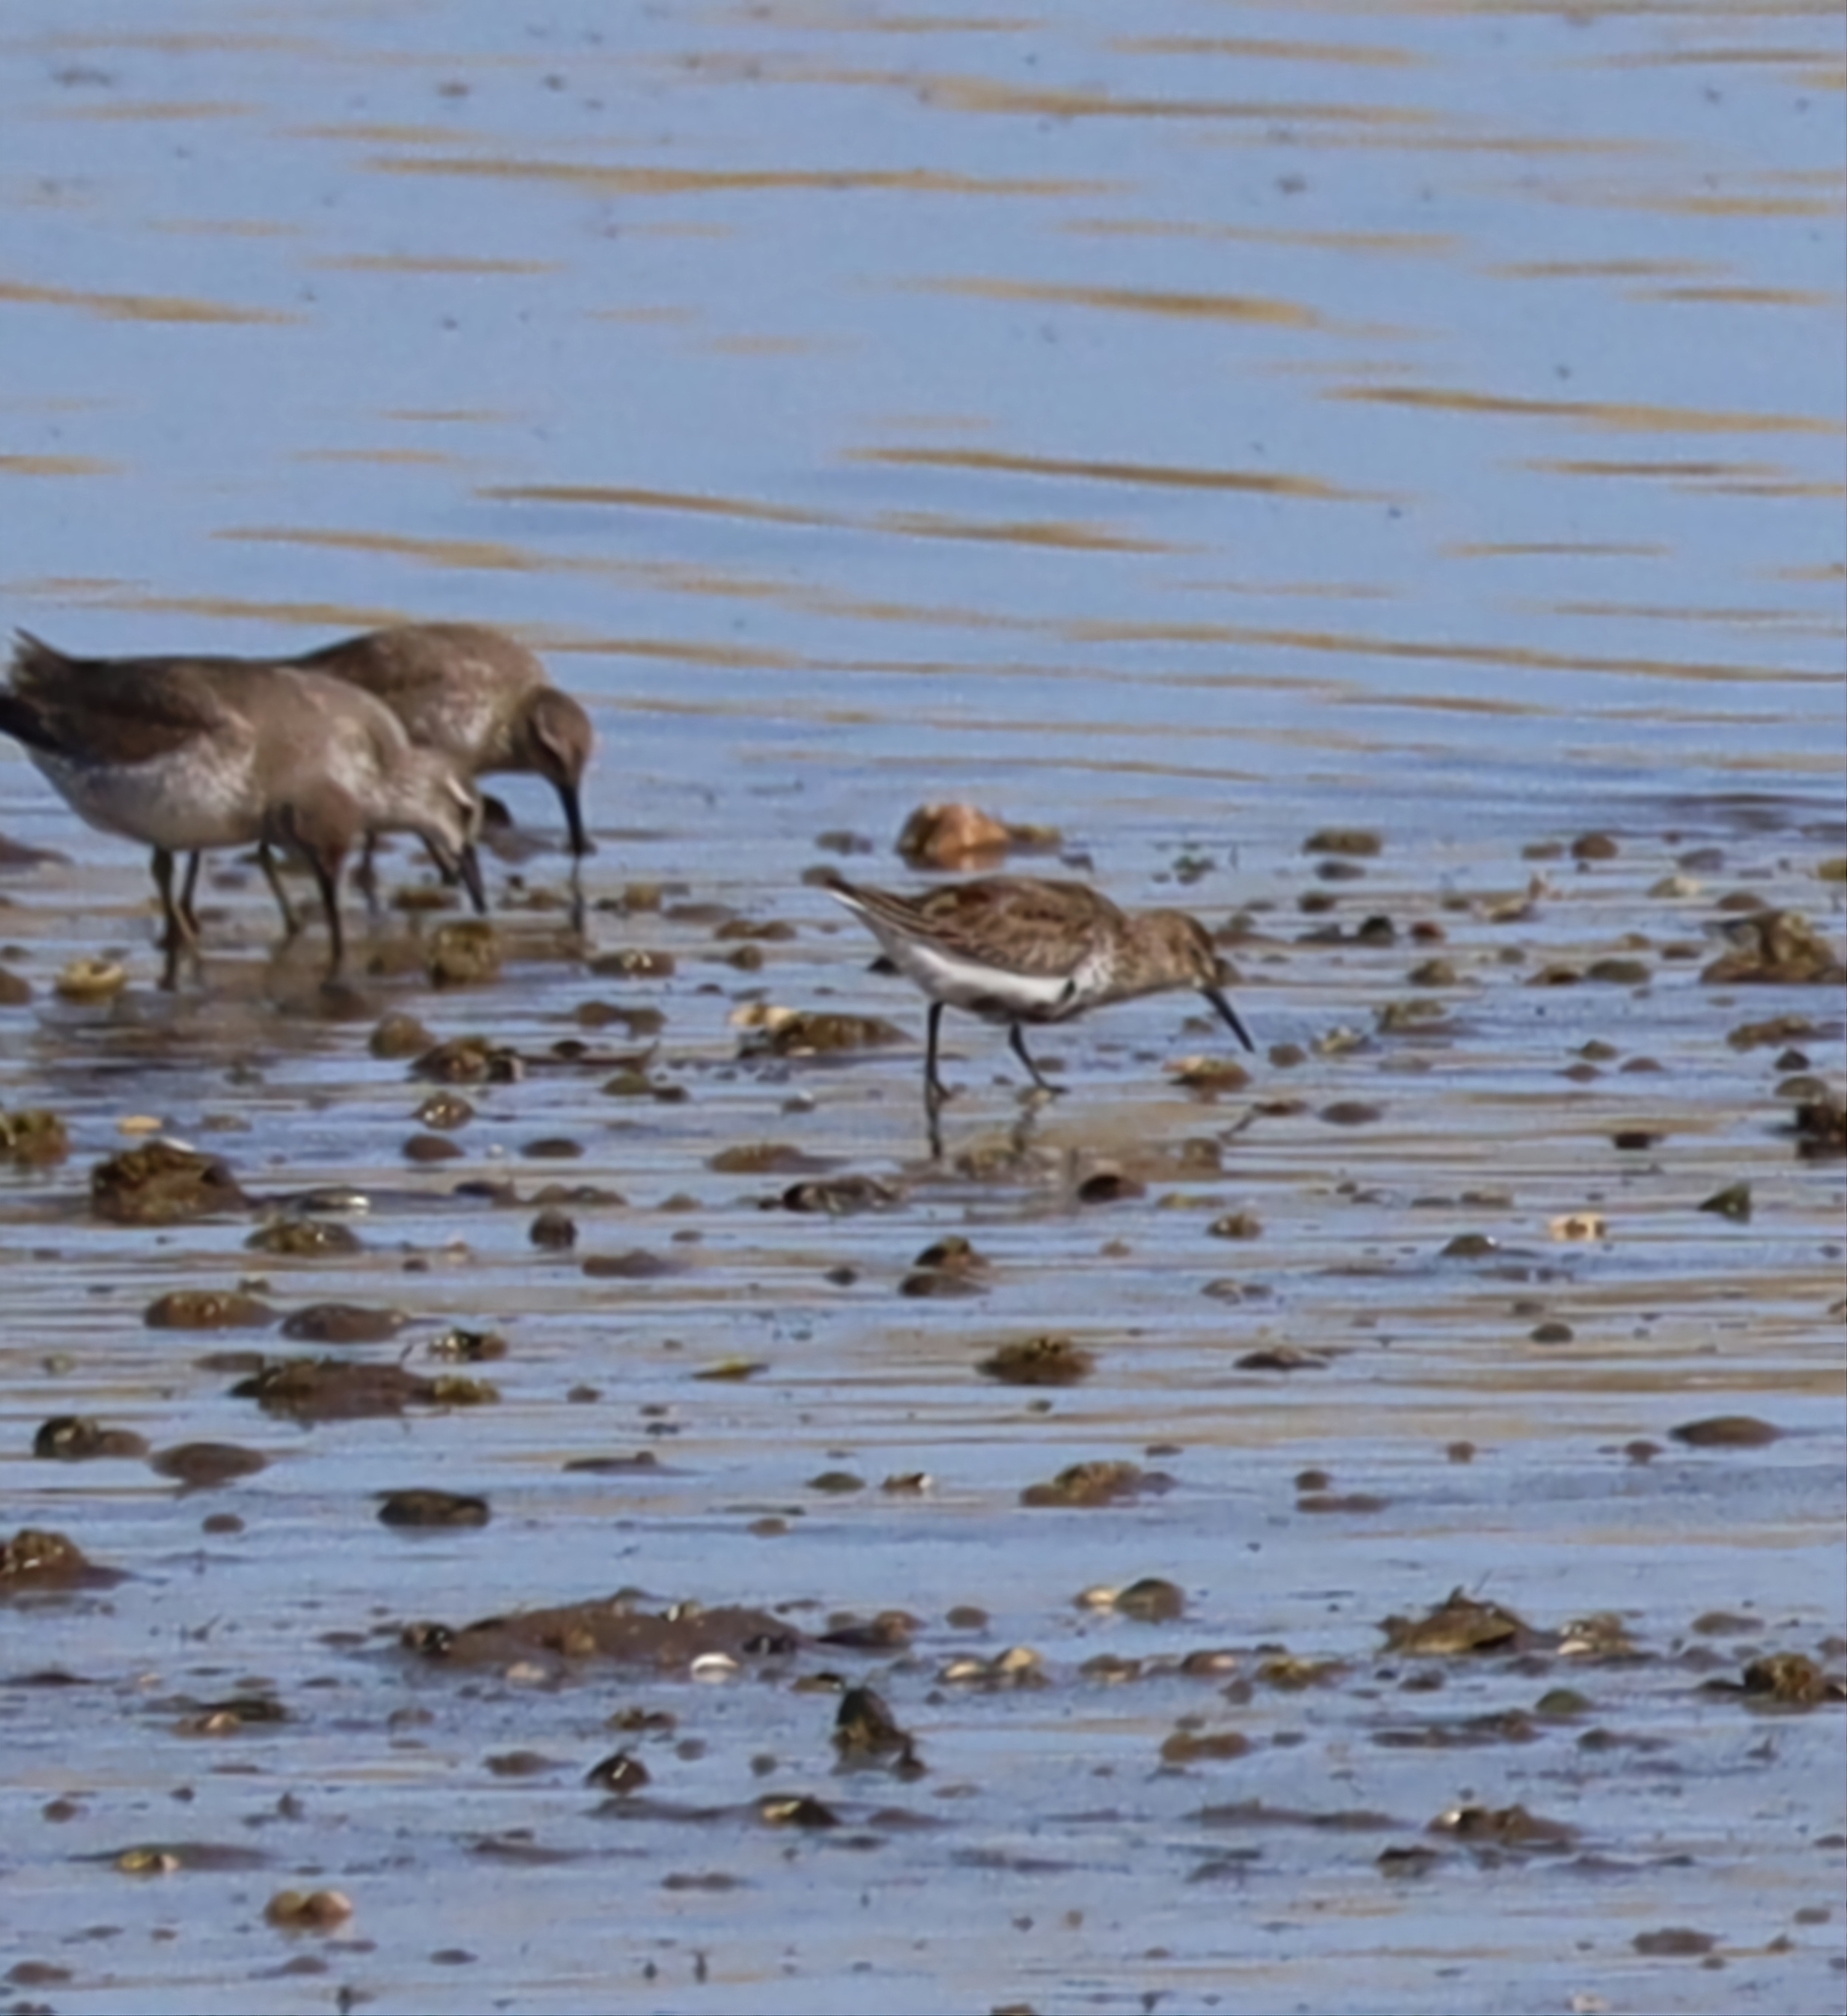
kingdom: Animalia
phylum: Chordata
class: Aves
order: Charadriiformes
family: Scolopacidae
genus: Calidris
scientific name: Calidris alpina
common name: Dunlin
